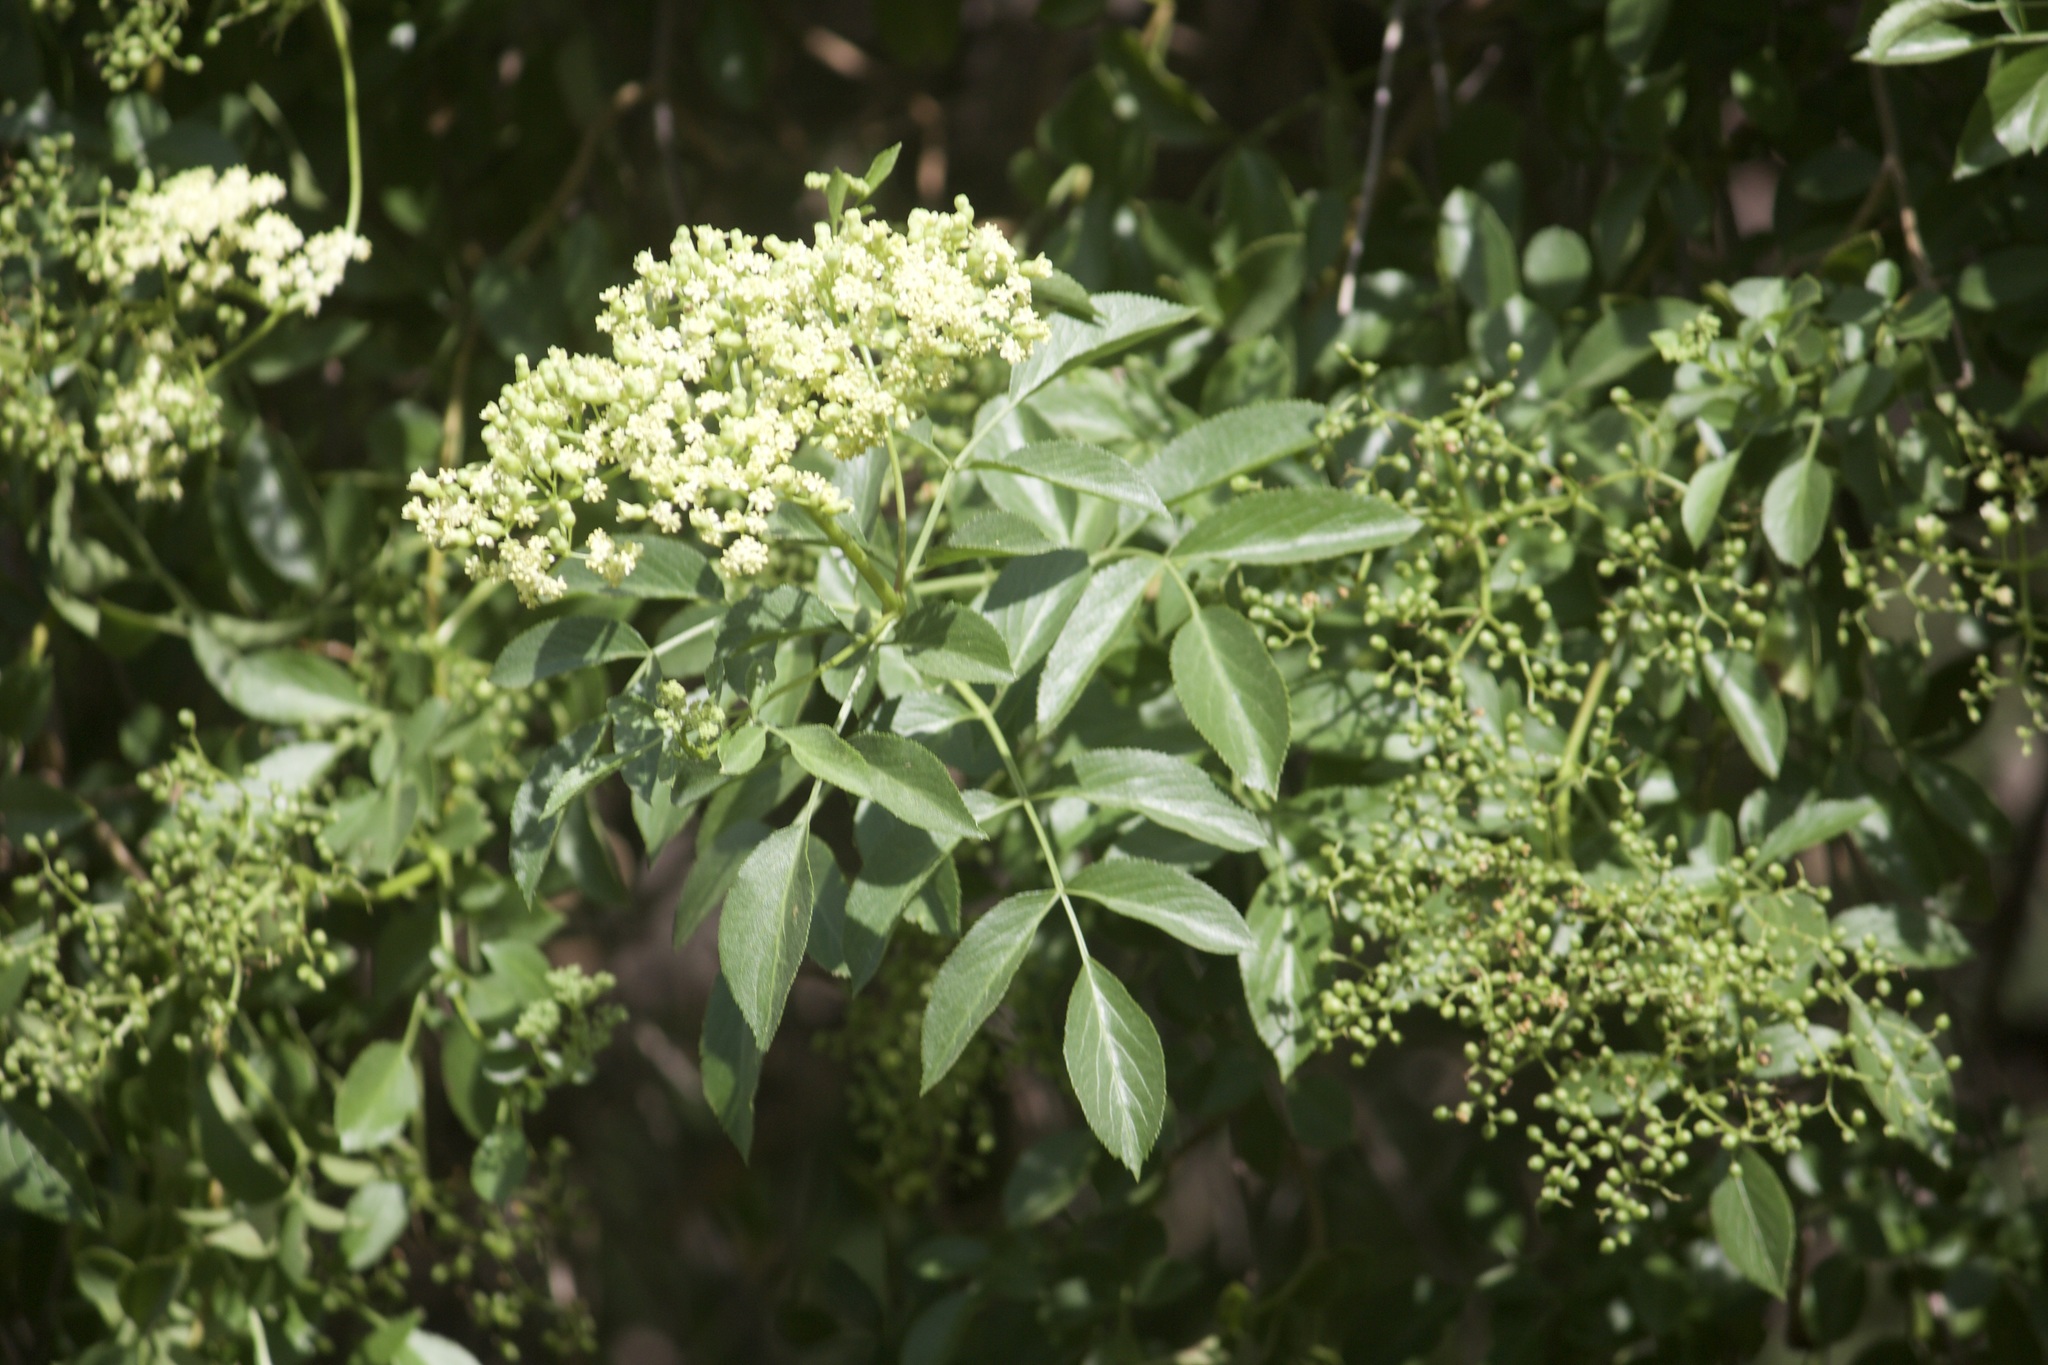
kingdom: Plantae
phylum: Tracheophyta
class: Magnoliopsida
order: Dipsacales
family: Viburnaceae
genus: Sambucus
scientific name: Sambucus cerulea
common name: Blue elder
